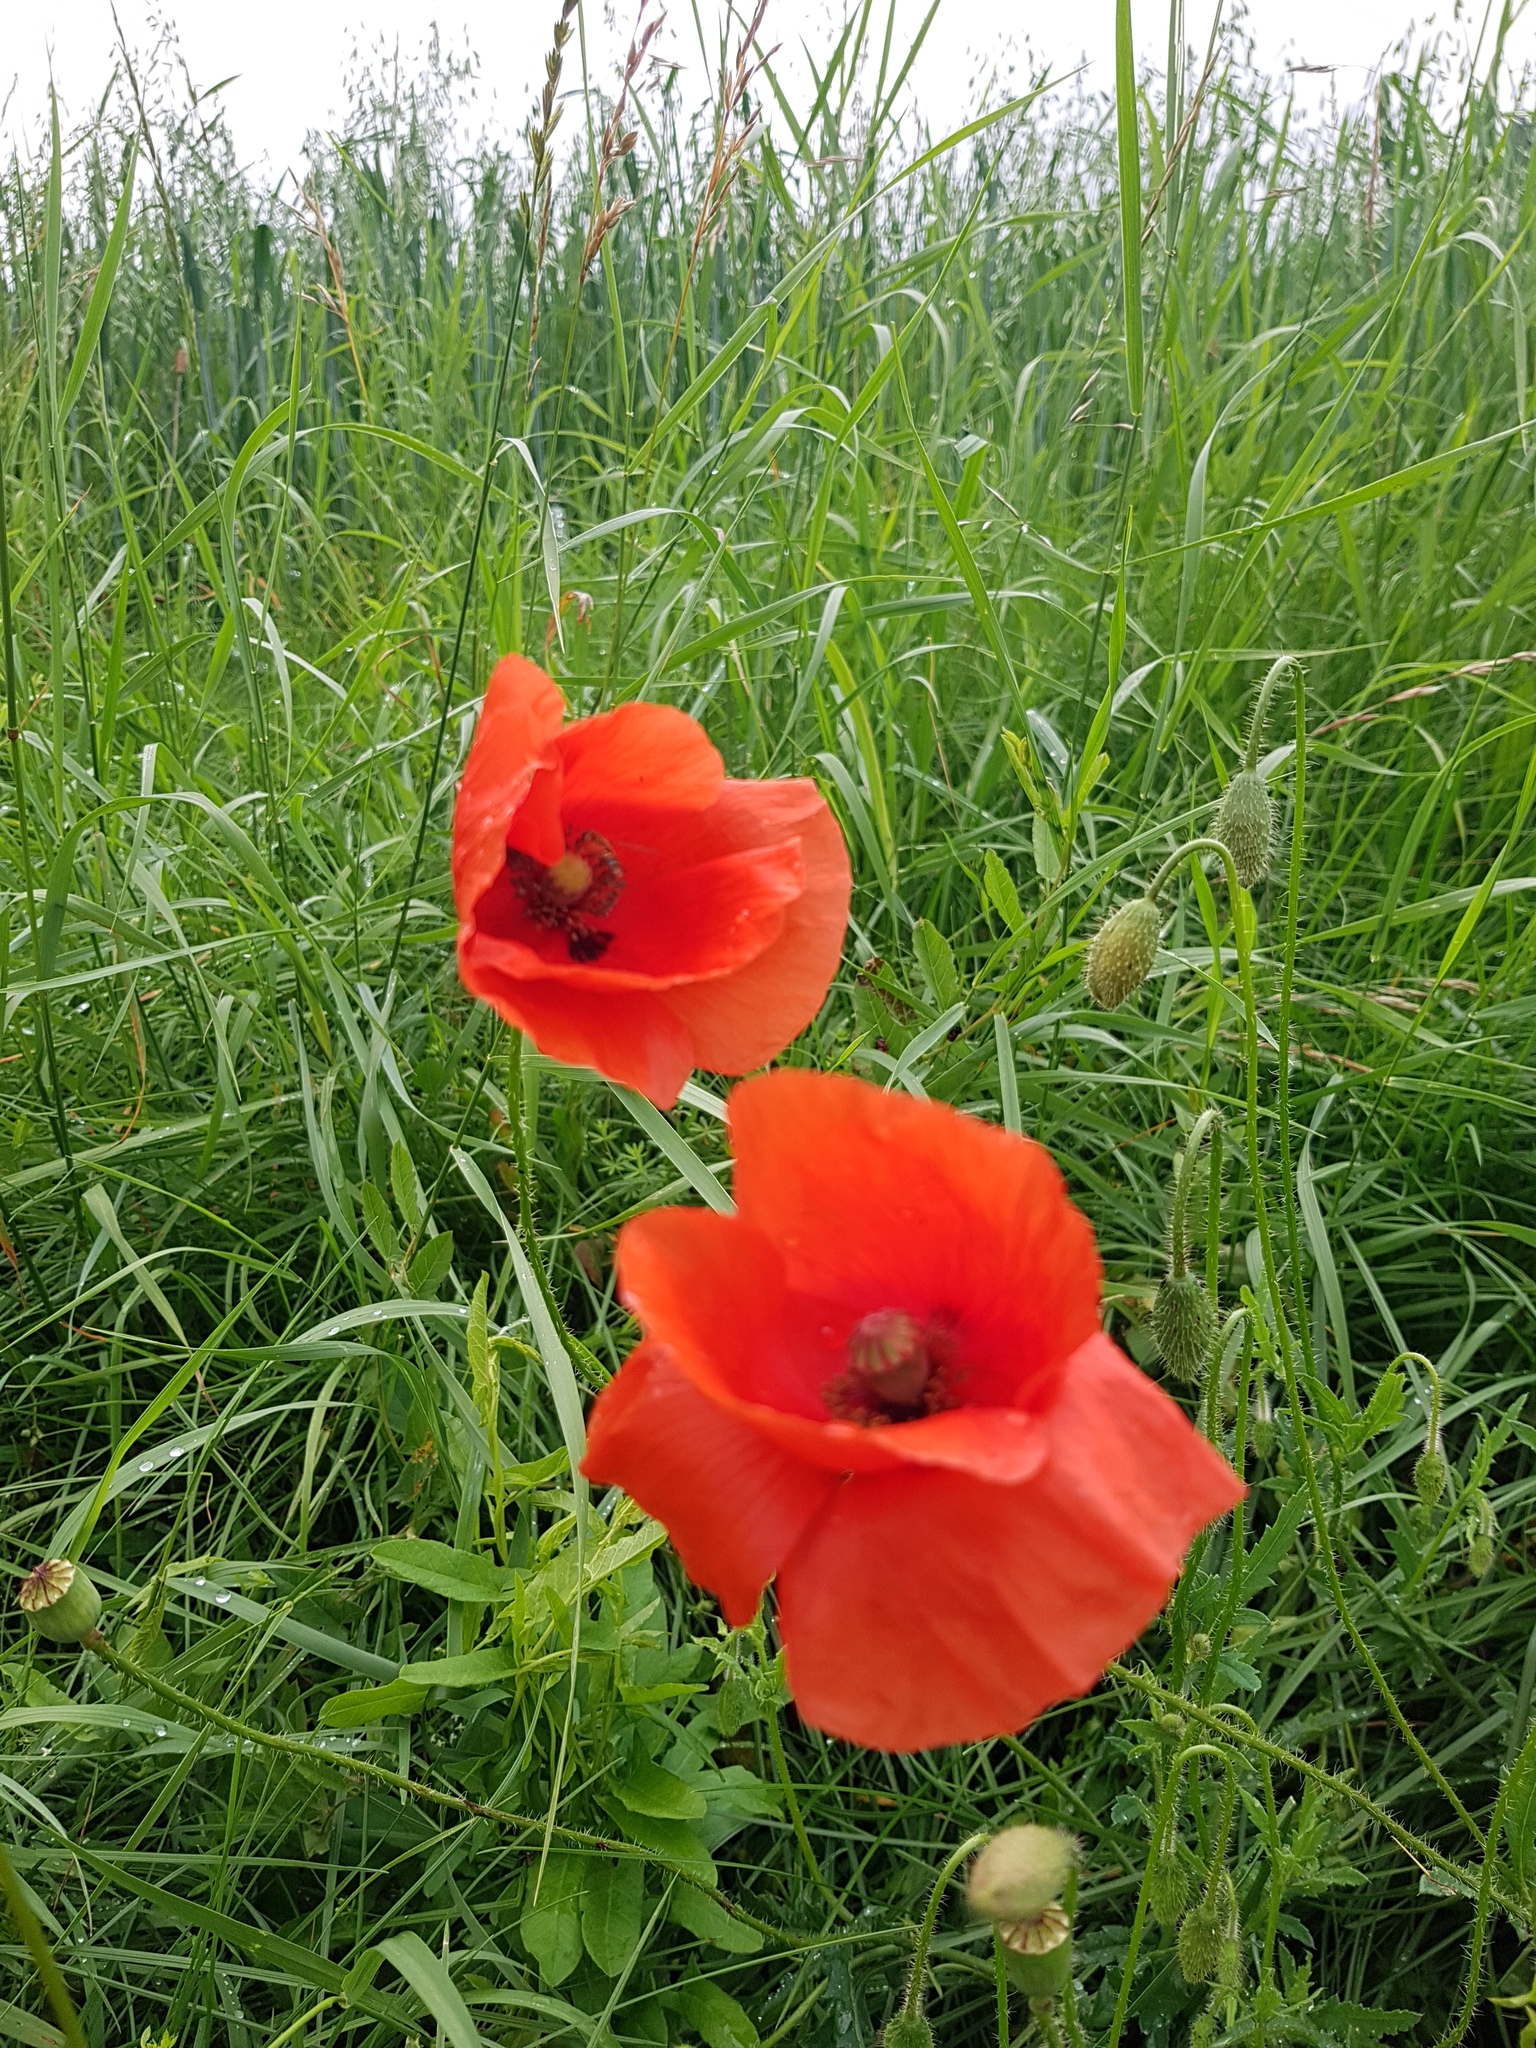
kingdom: Plantae
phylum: Tracheophyta
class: Magnoliopsida
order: Ranunculales
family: Papaveraceae
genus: Papaver
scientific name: Papaver rhoeas
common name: Corn poppy
